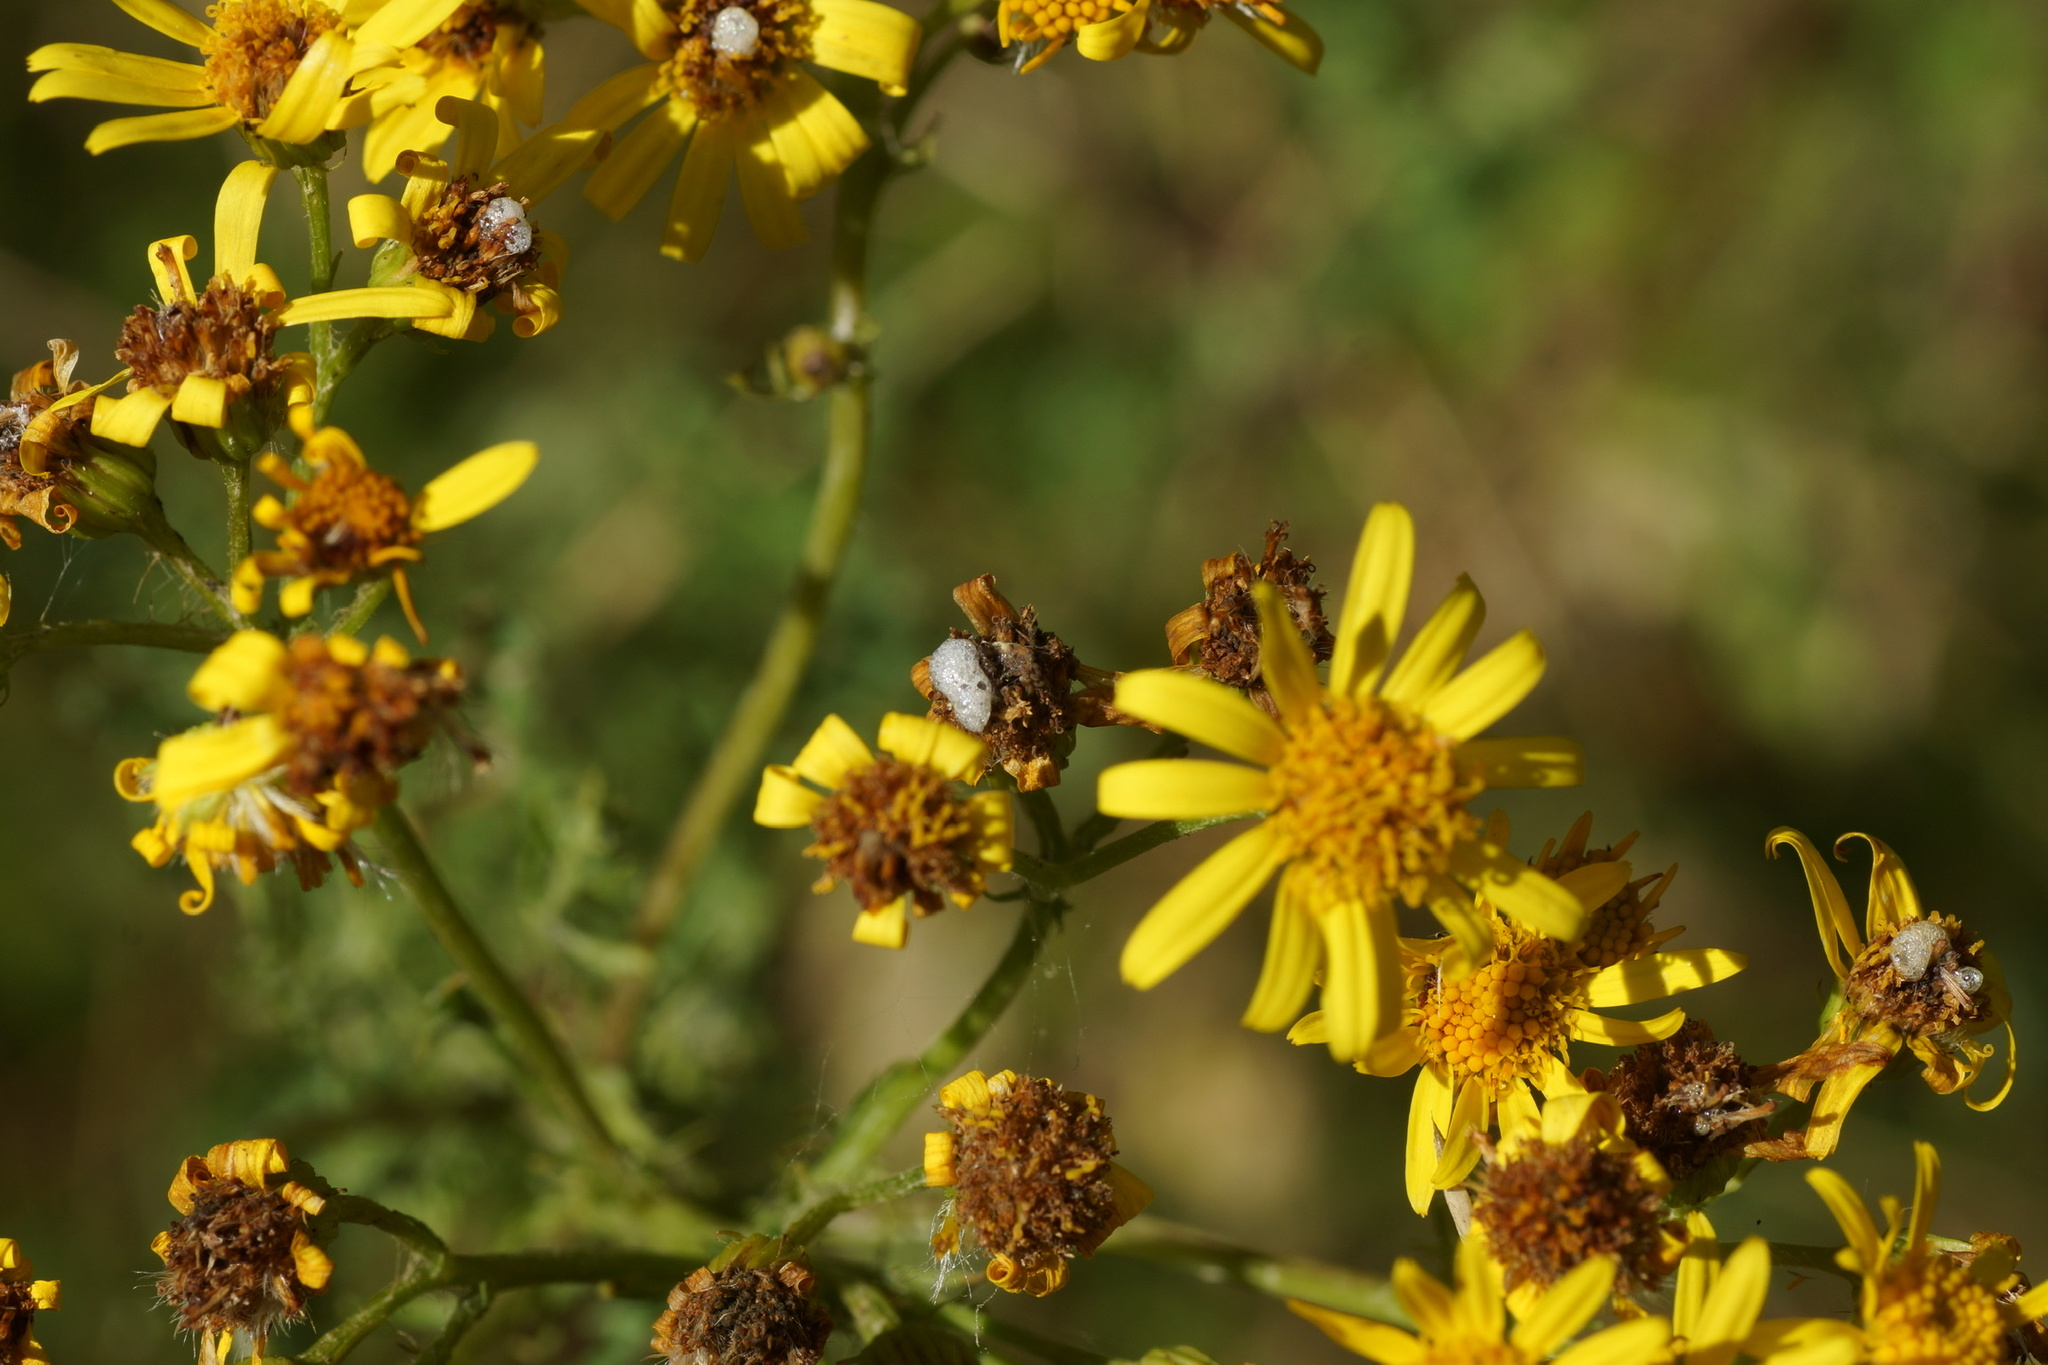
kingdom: Animalia
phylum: Arthropoda
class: Insecta
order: Diptera
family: Anthomyiidae
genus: Botanophila
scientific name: Botanophila seneciella
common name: Fly
